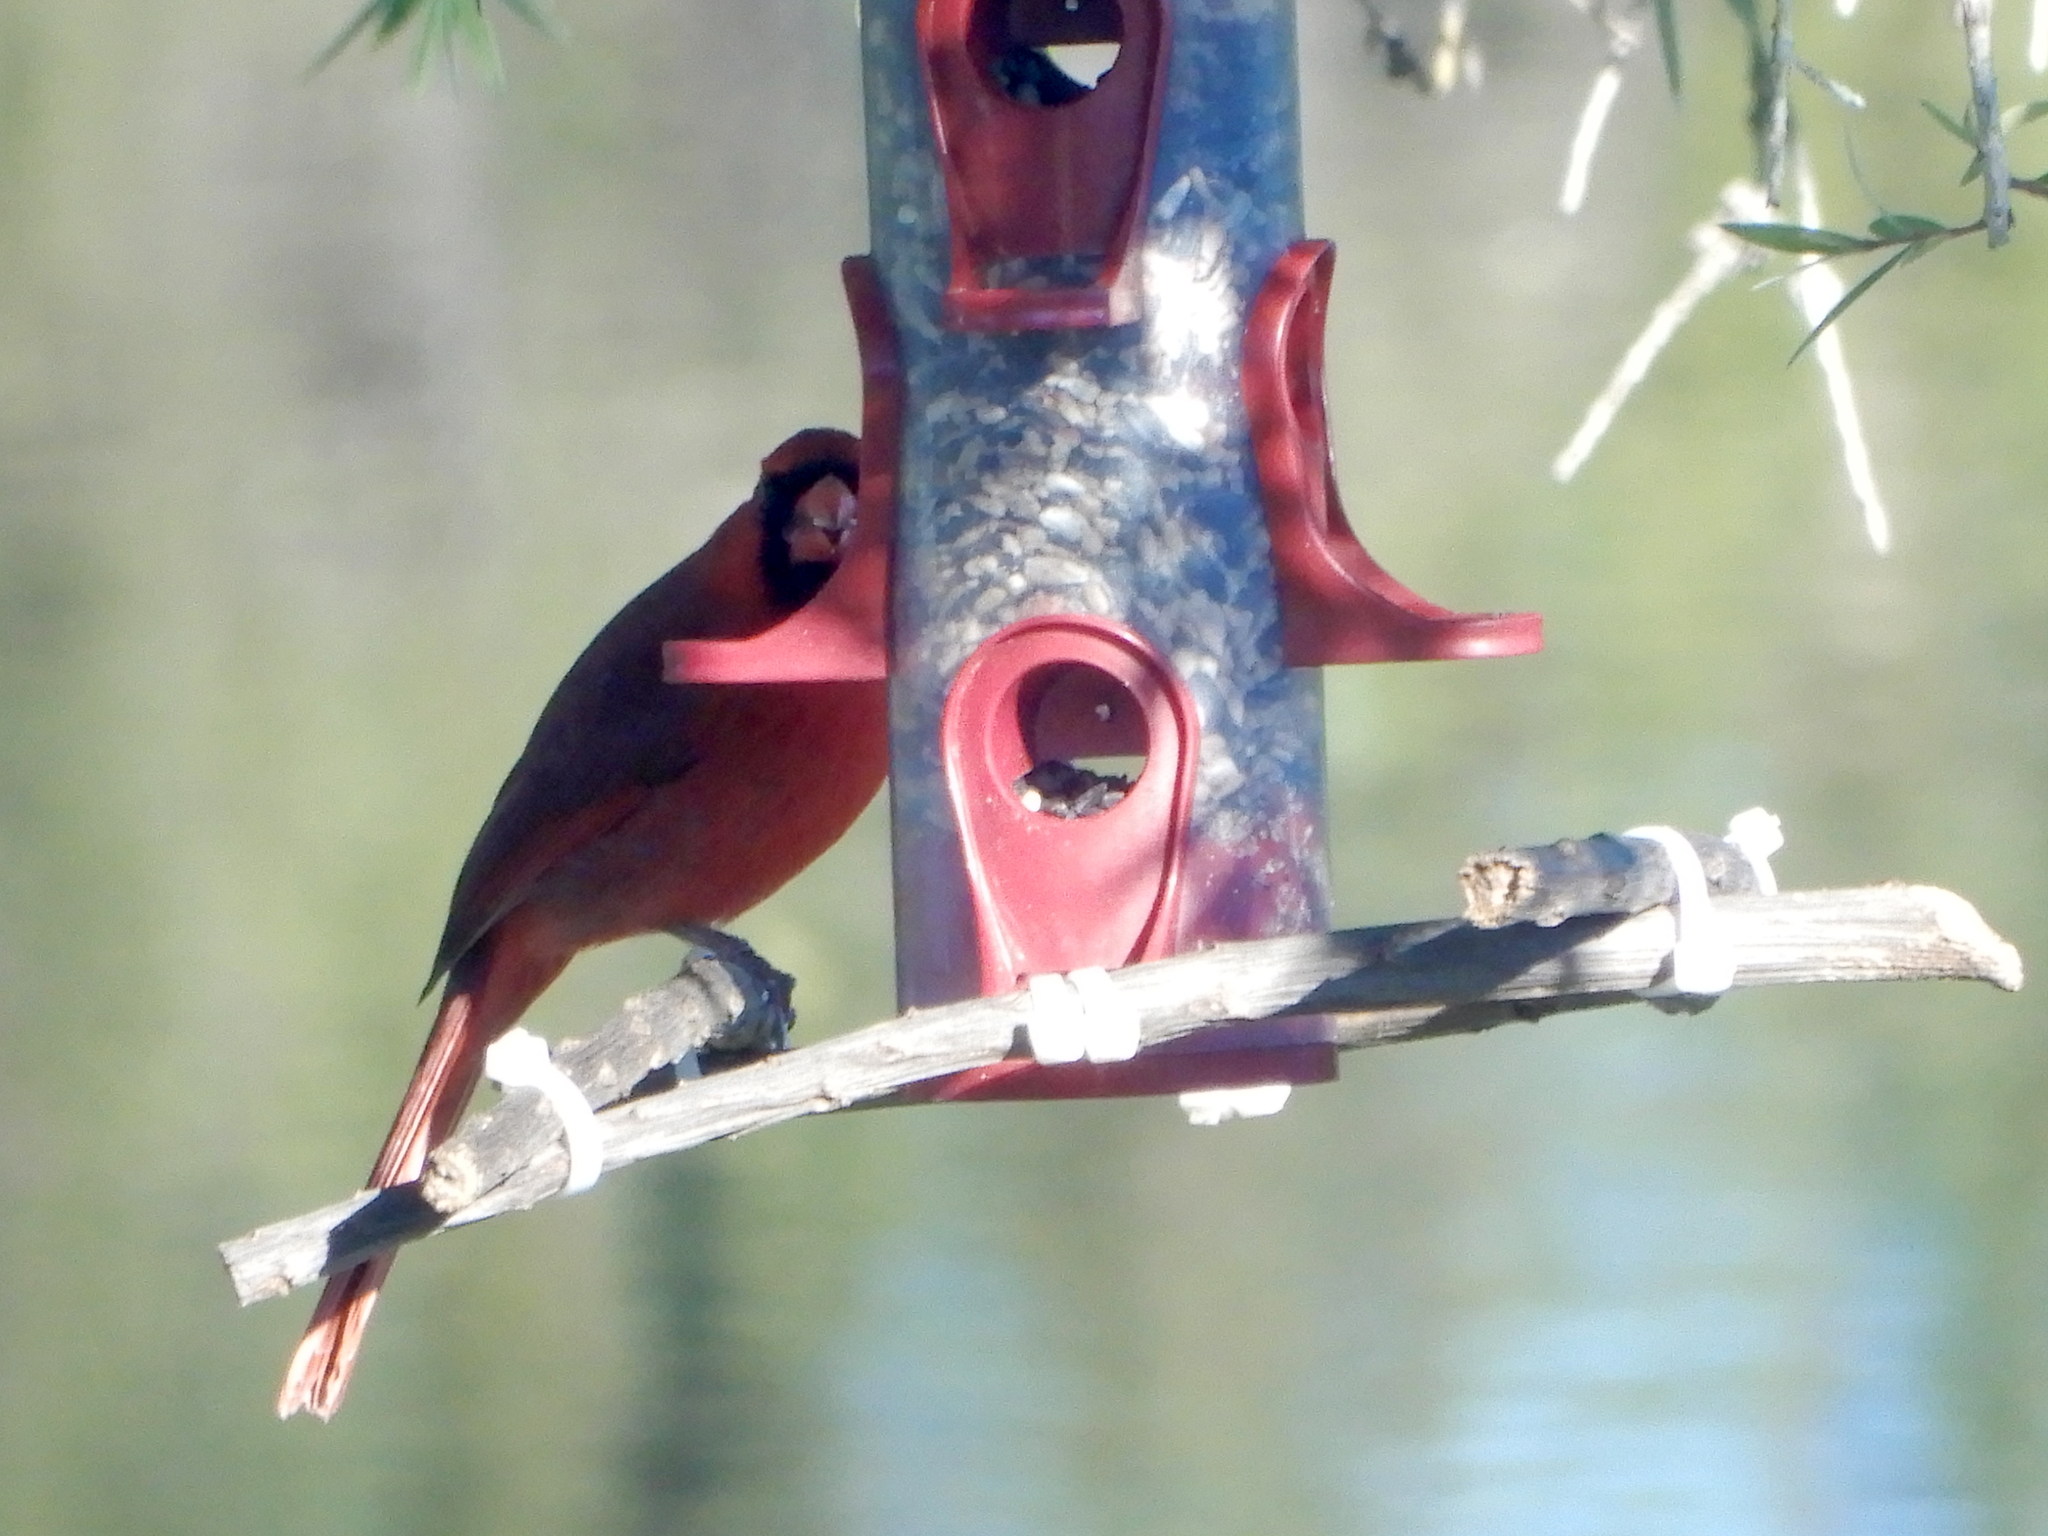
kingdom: Animalia
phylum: Chordata
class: Aves
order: Passeriformes
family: Cardinalidae
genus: Cardinalis
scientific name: Cardinalis cardinalis
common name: Northern cardinal
